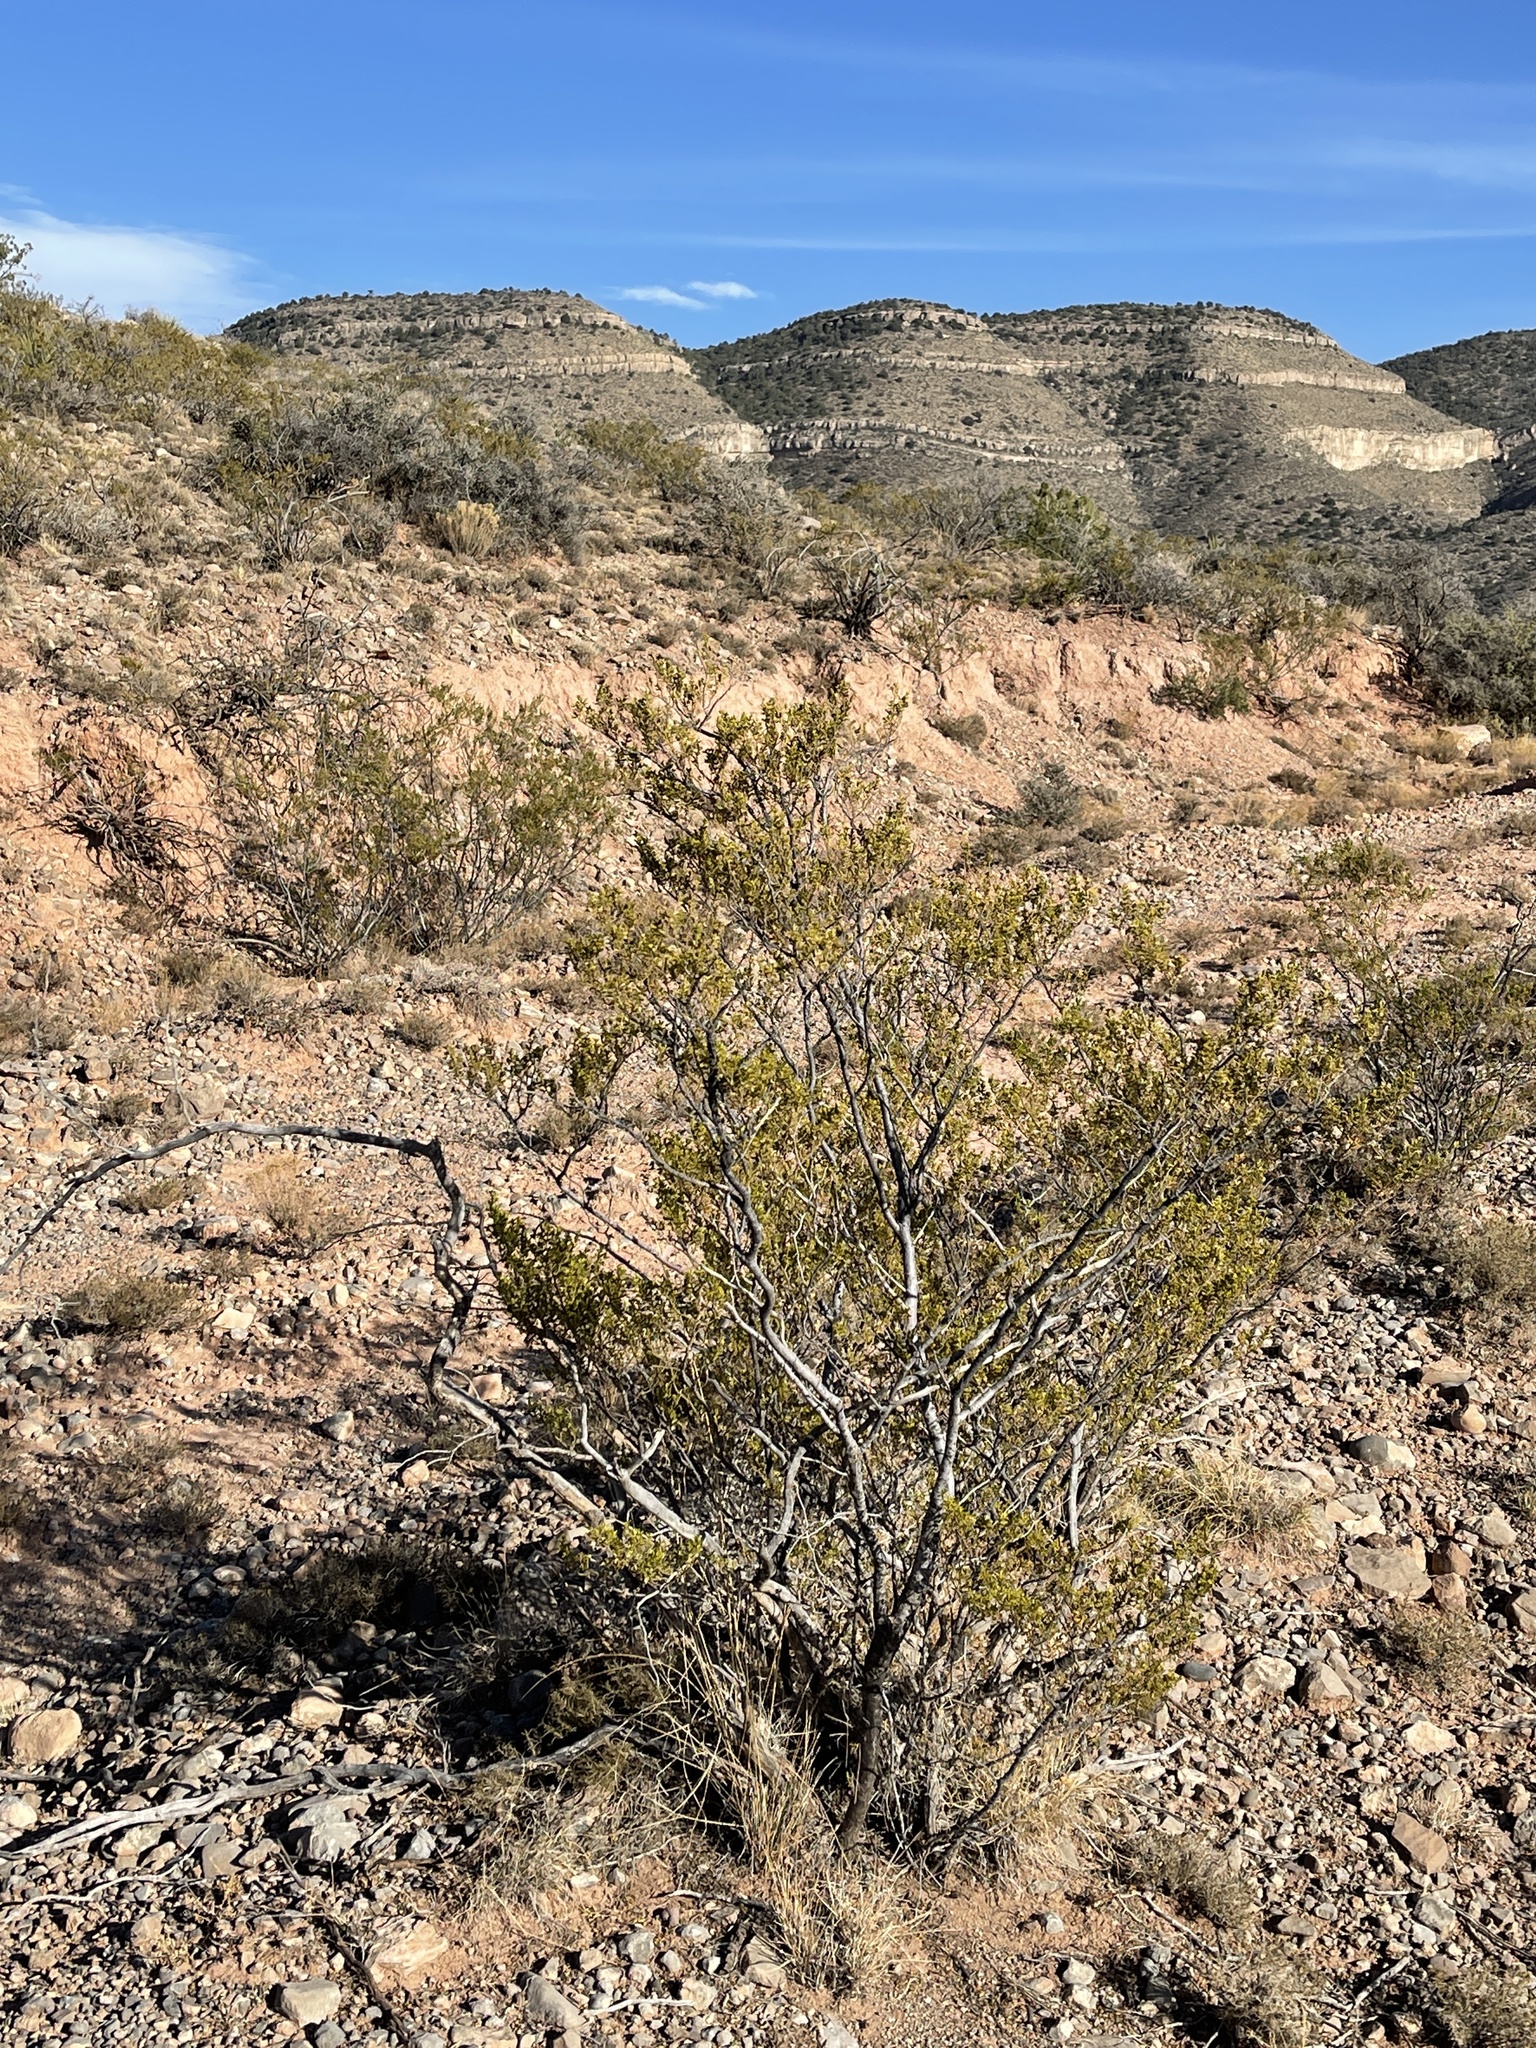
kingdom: Plantae
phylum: Tracheophyta
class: Magnoliopsida
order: Zygophyllales
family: Zygophyllaceae
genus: Larrea
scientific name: Larrea tridentata
